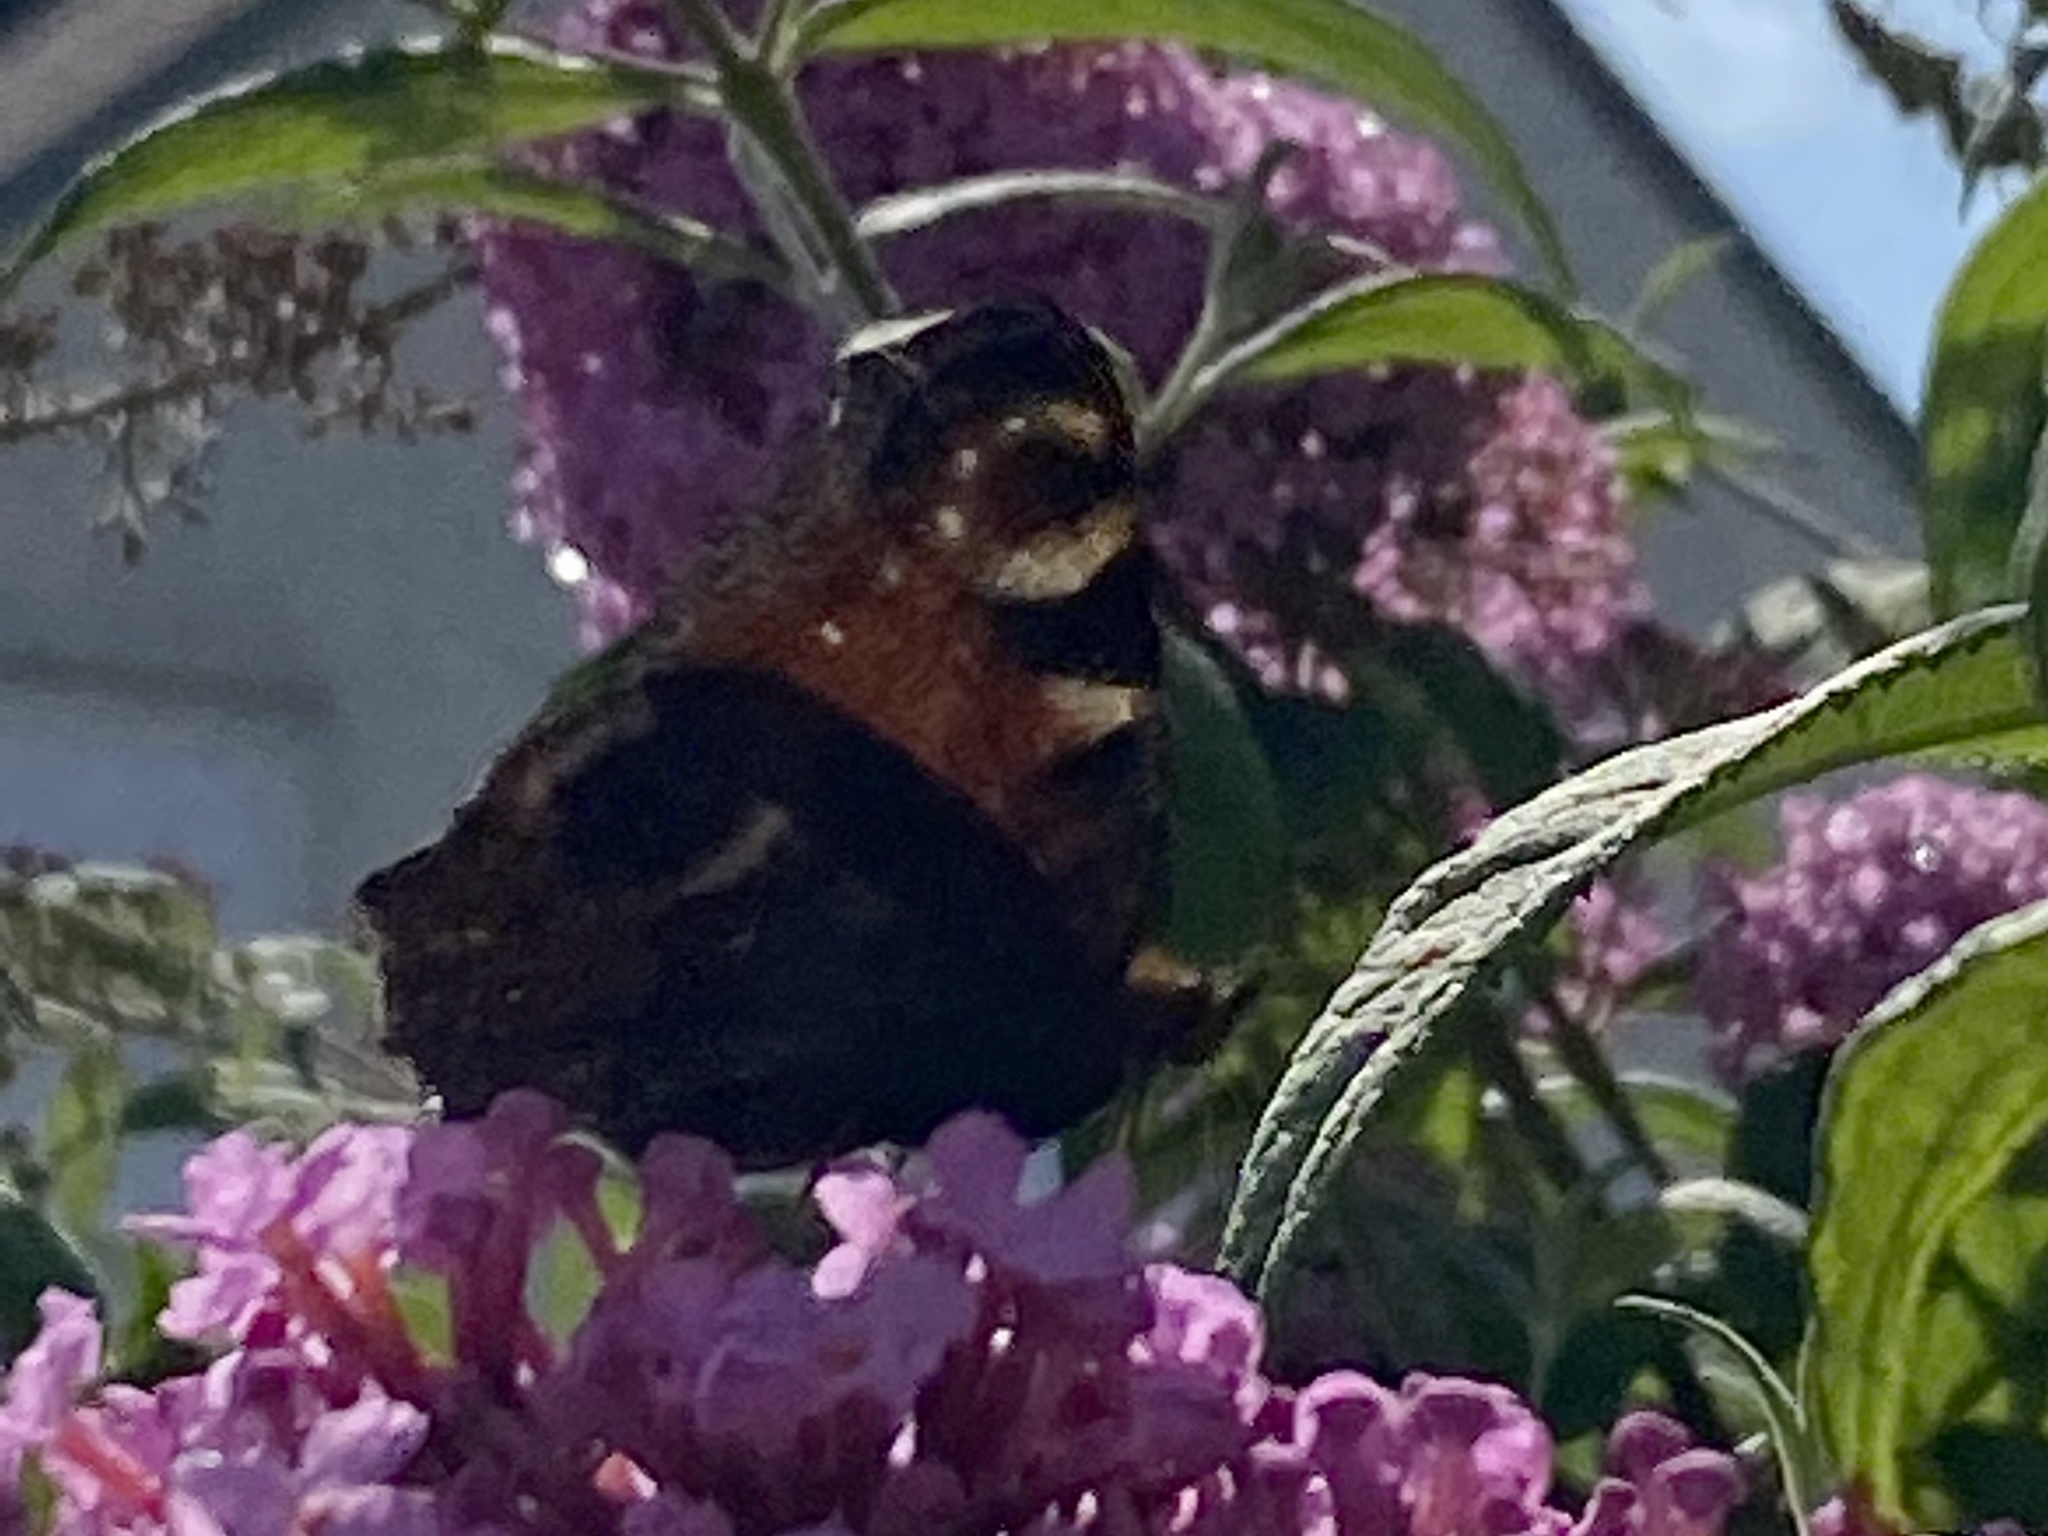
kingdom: Animalia
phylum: Arthropoda
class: Insecta
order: Lepidoptera
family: Nymphalidae
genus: Aglais
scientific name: Aglais io
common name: Peacock
